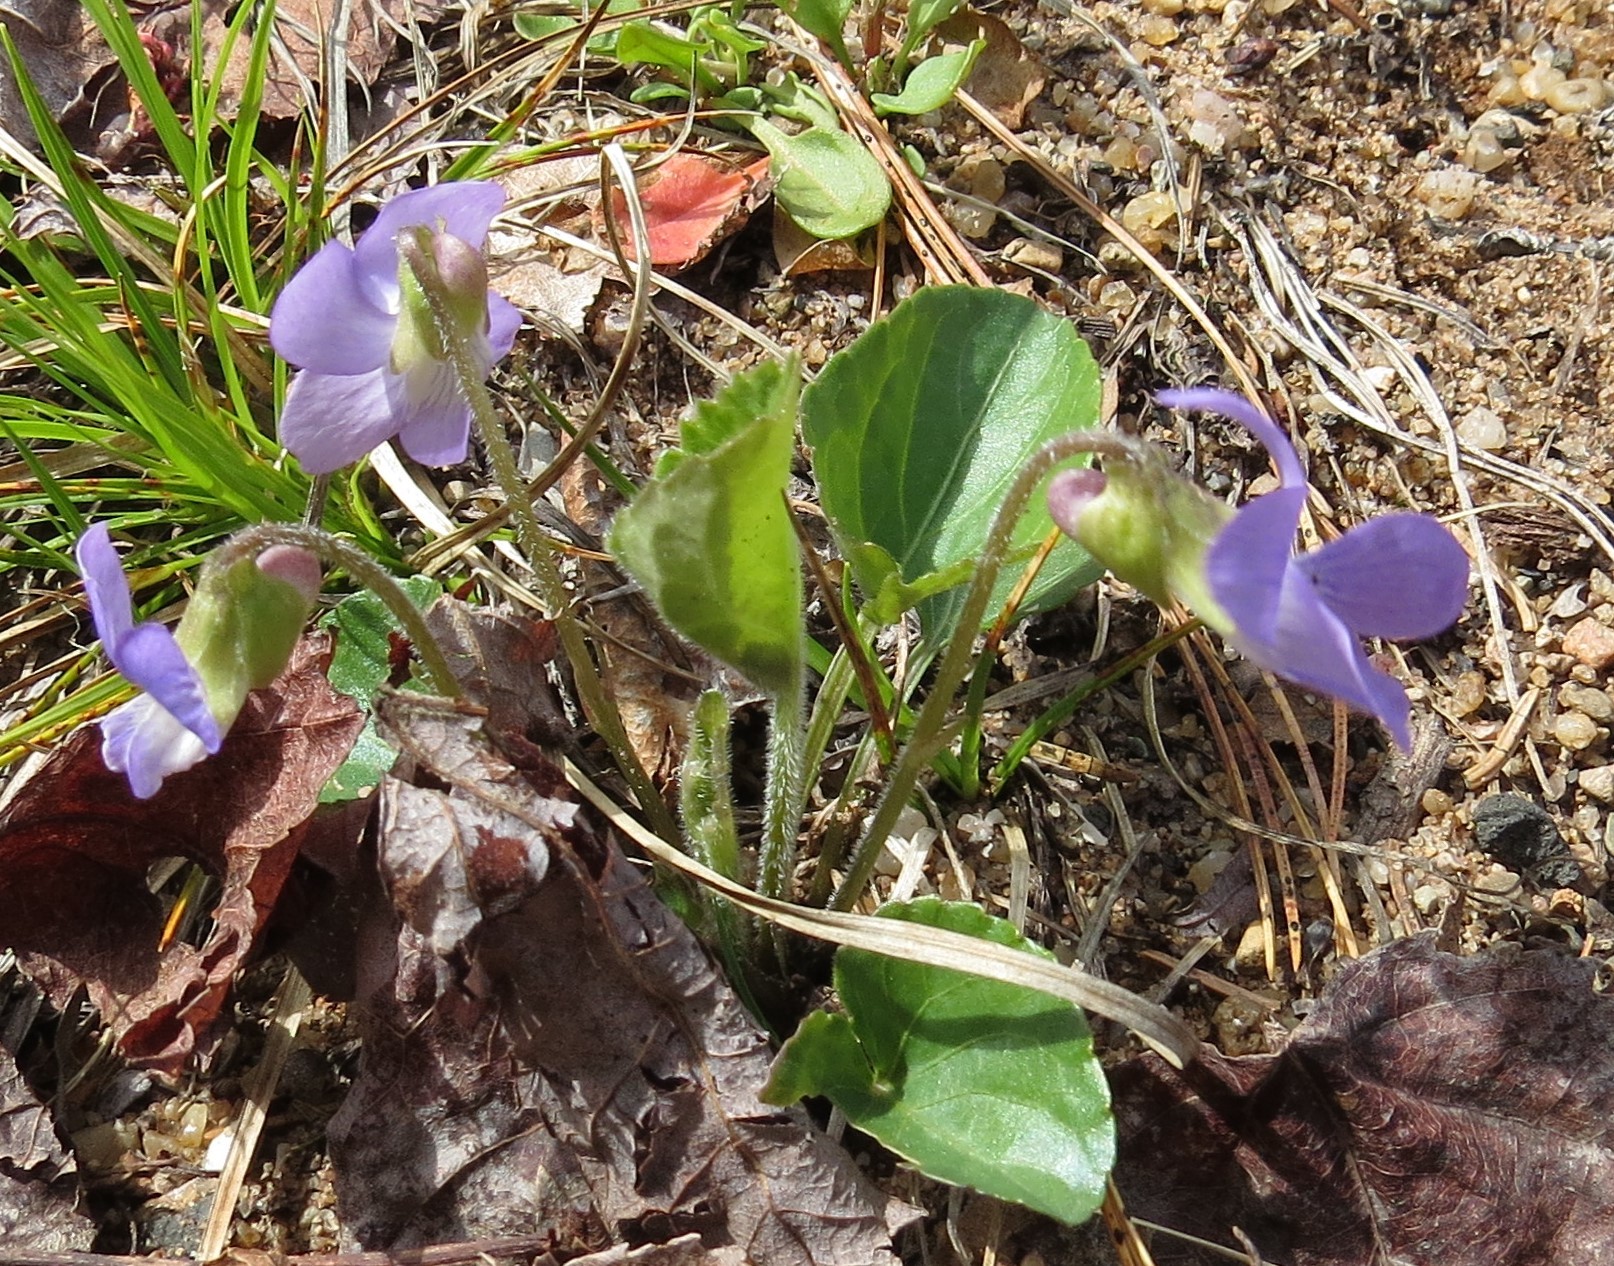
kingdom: Plantae
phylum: Tracheophyta
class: Magnoliopsida
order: Malpighiales
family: Violaceae
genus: Viola
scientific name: Viola sororia
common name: Dooryard violet
